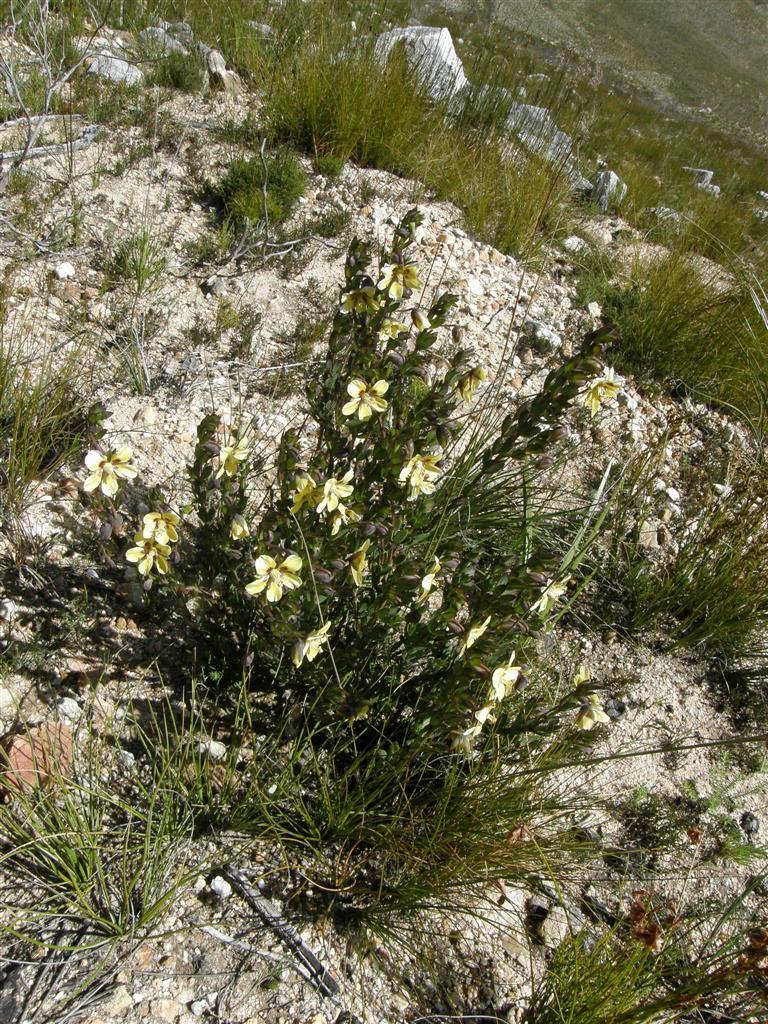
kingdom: Plantae
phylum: Tracheophyta
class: Magnoliopsida
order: Zygophyllales
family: Zygophyllaceae
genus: Roepera
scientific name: Roepera fulva
